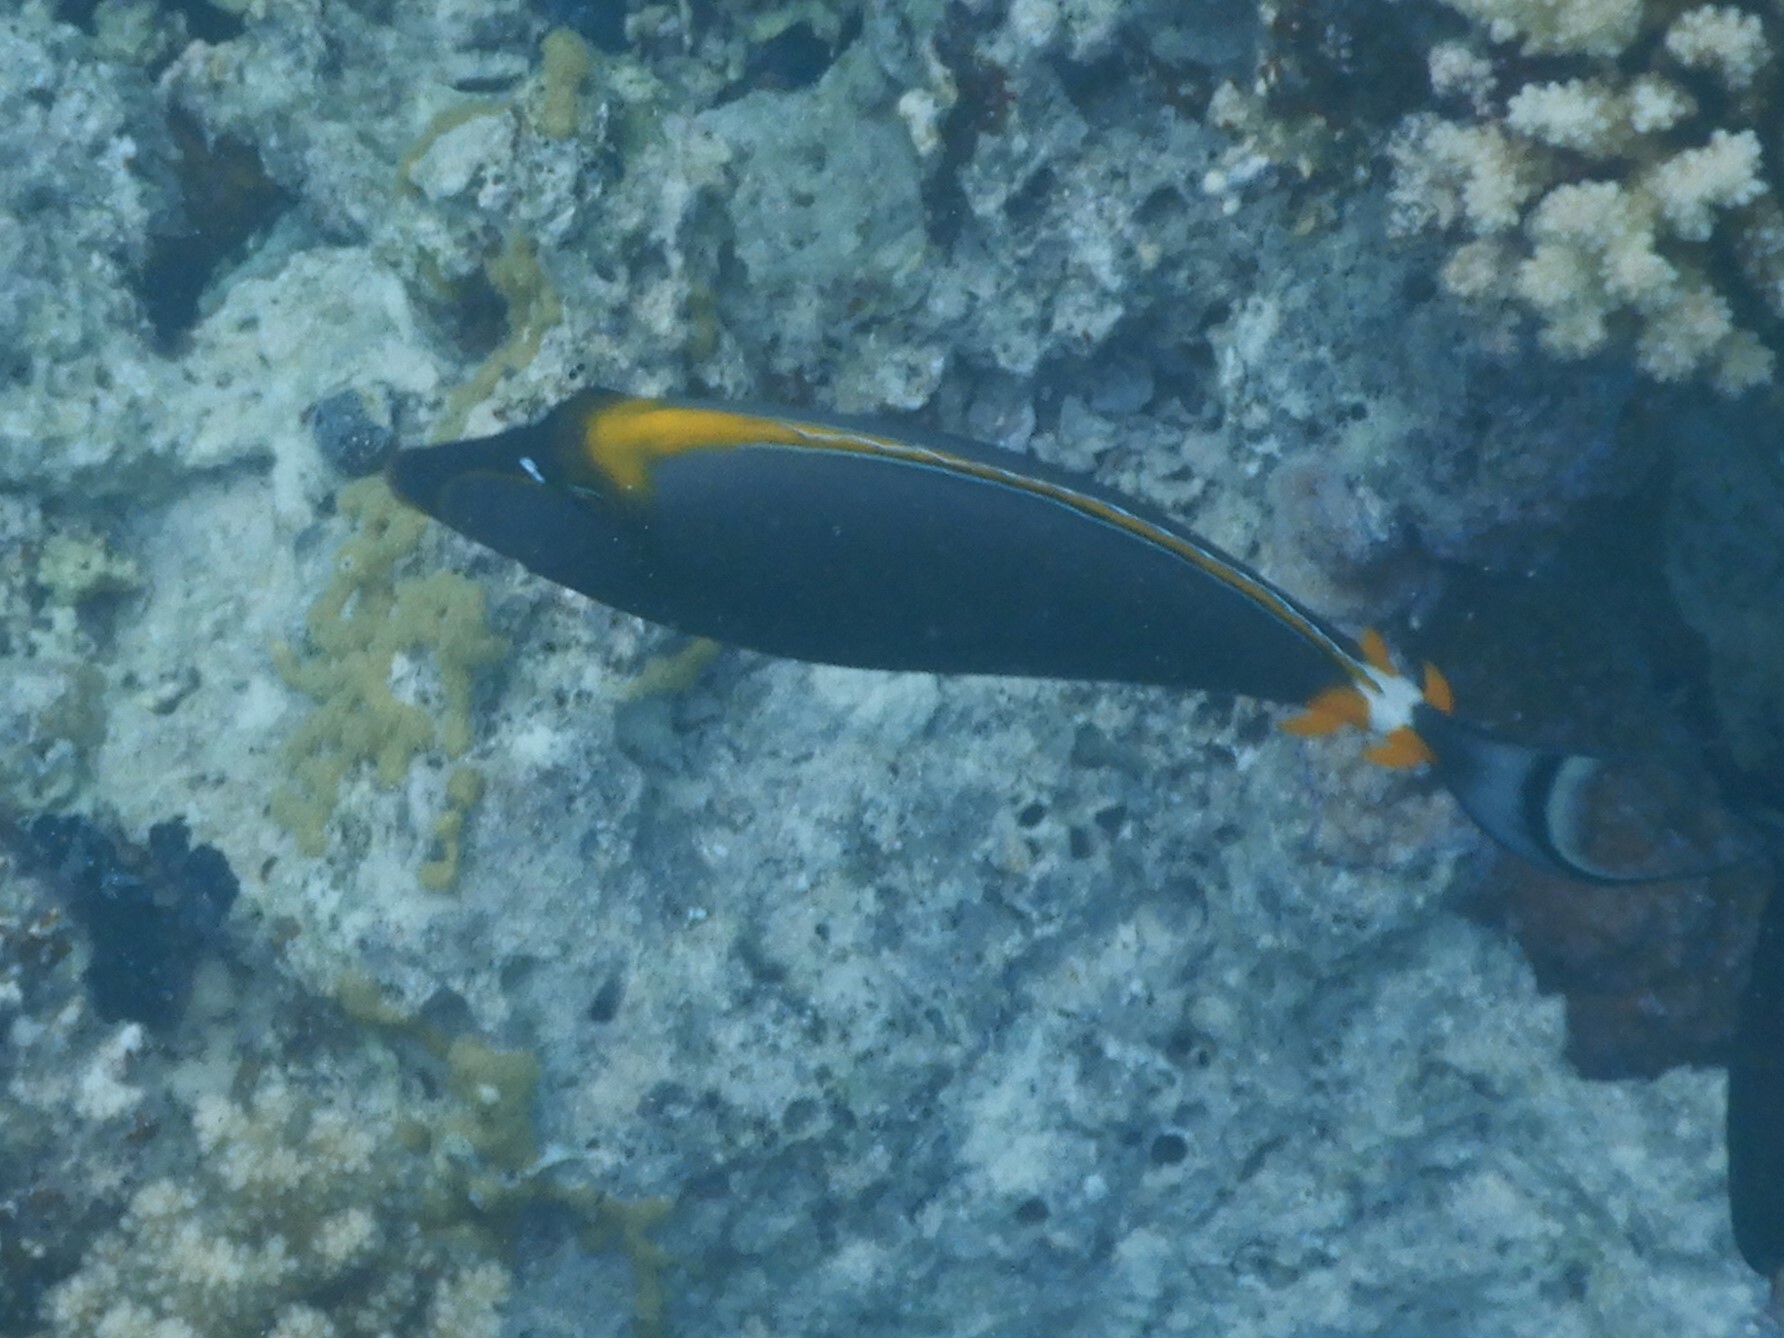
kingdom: Animalia
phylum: Chordata
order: Perciformes
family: Acanthuridae
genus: Naso
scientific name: Naso elegans
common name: Orangespine unicornfish
